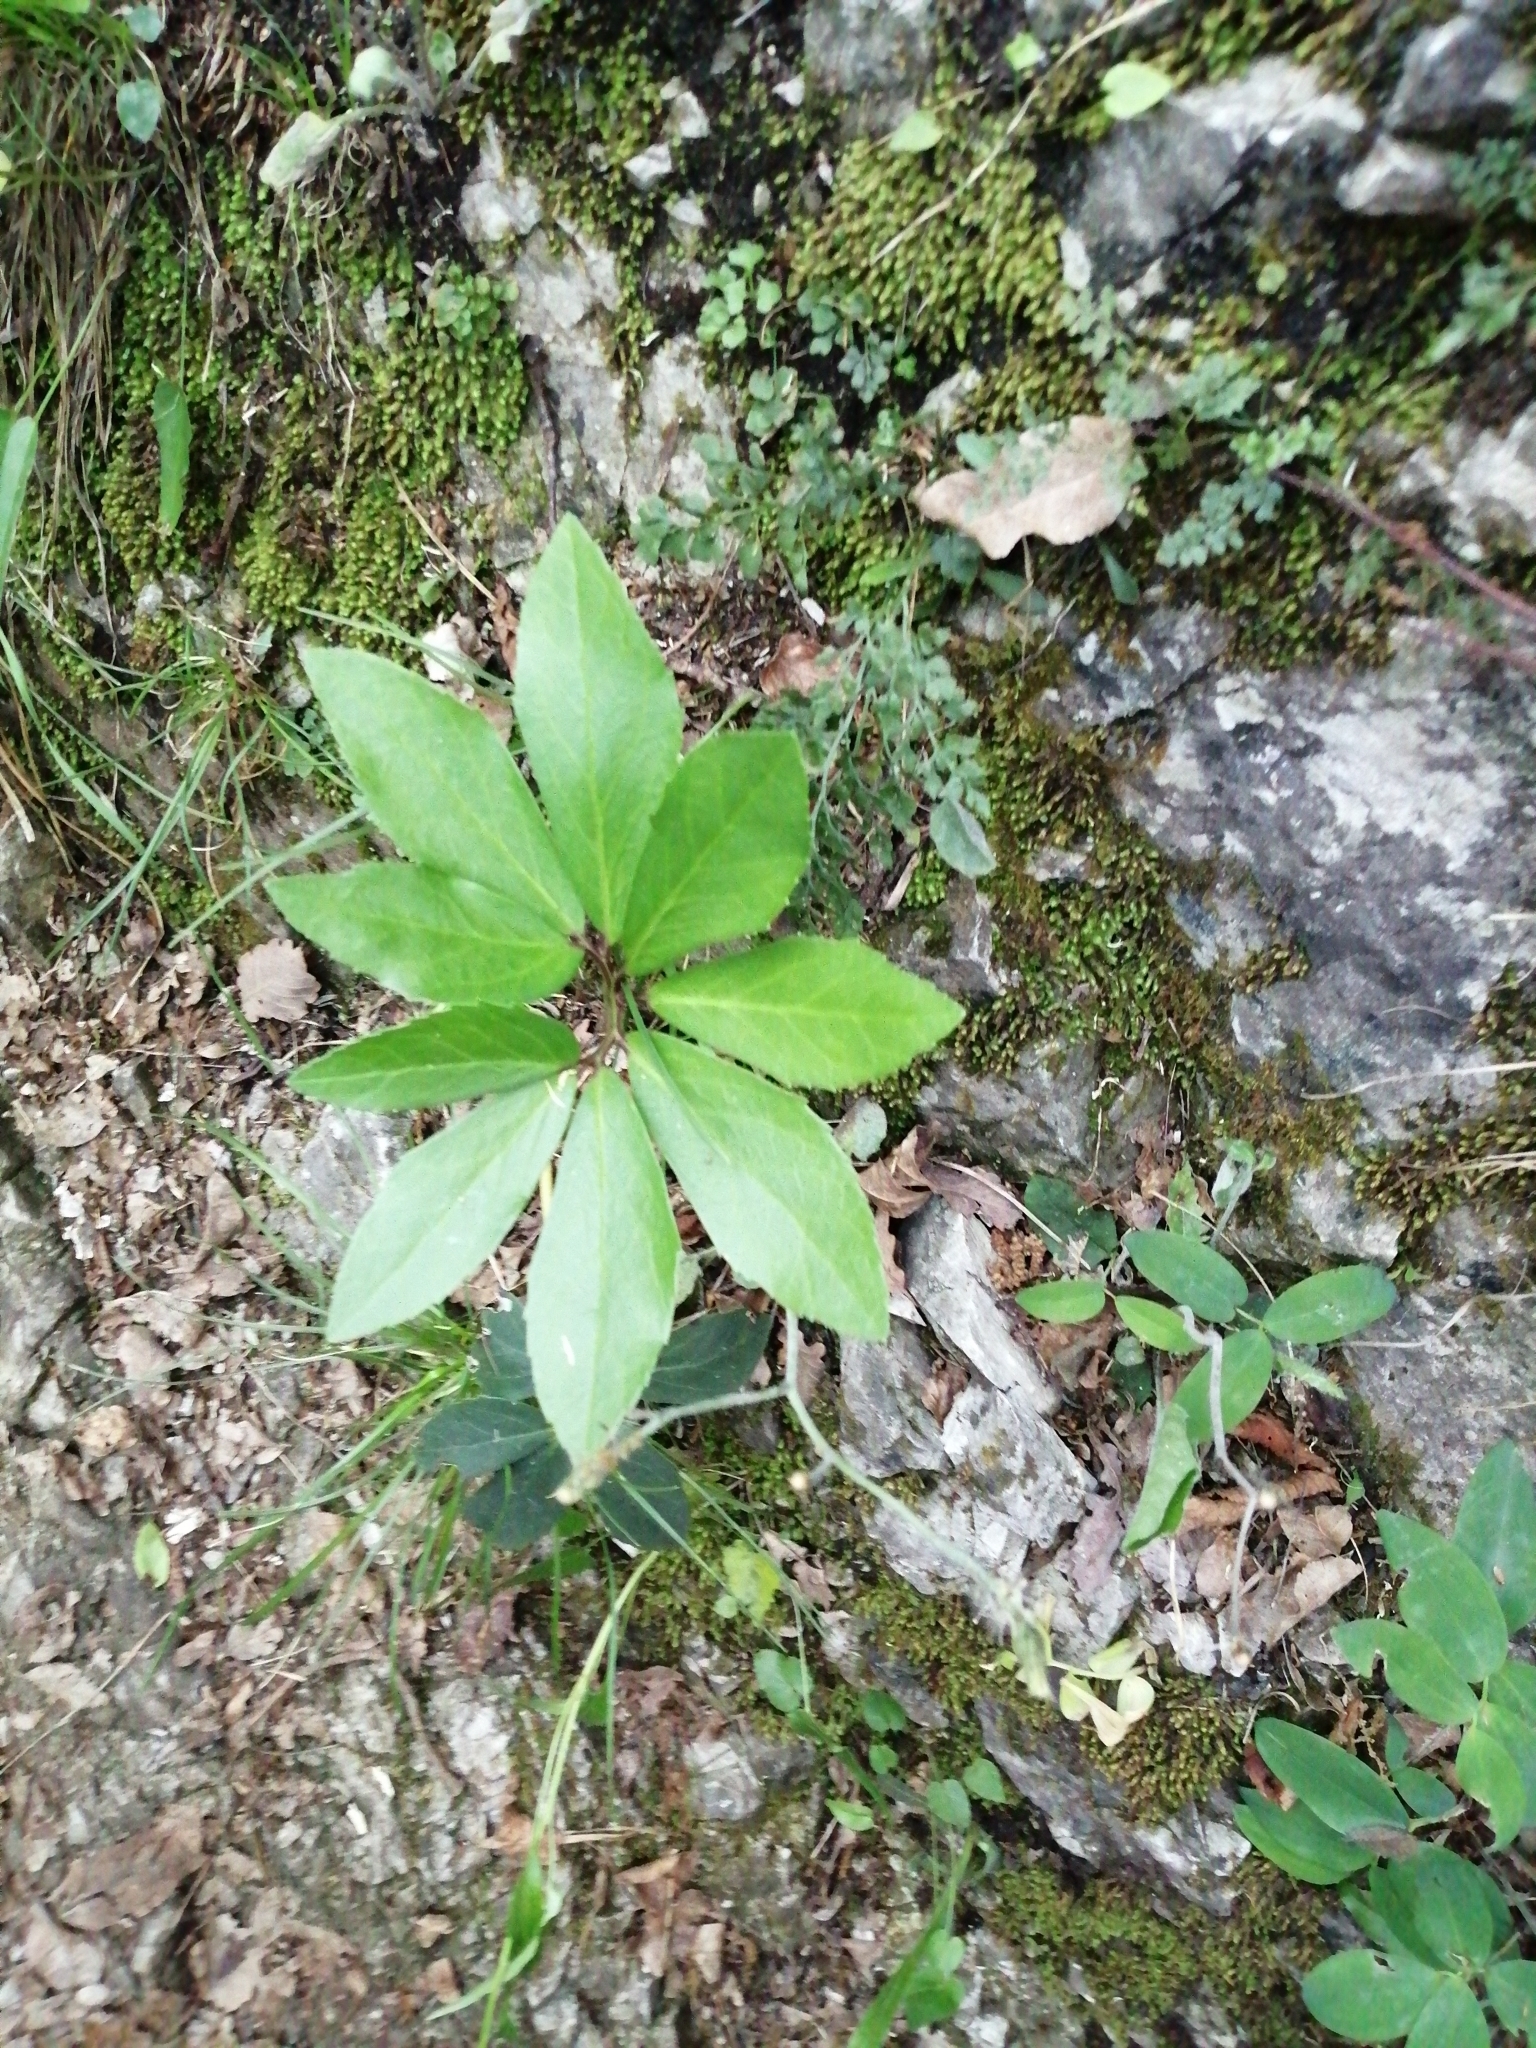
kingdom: Plantae
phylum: Tracheophyta
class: Magnoliopsida
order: Ranunculales
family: Ranunculaceae
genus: Helleborus
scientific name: Helleborus niger
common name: Black hellebore
